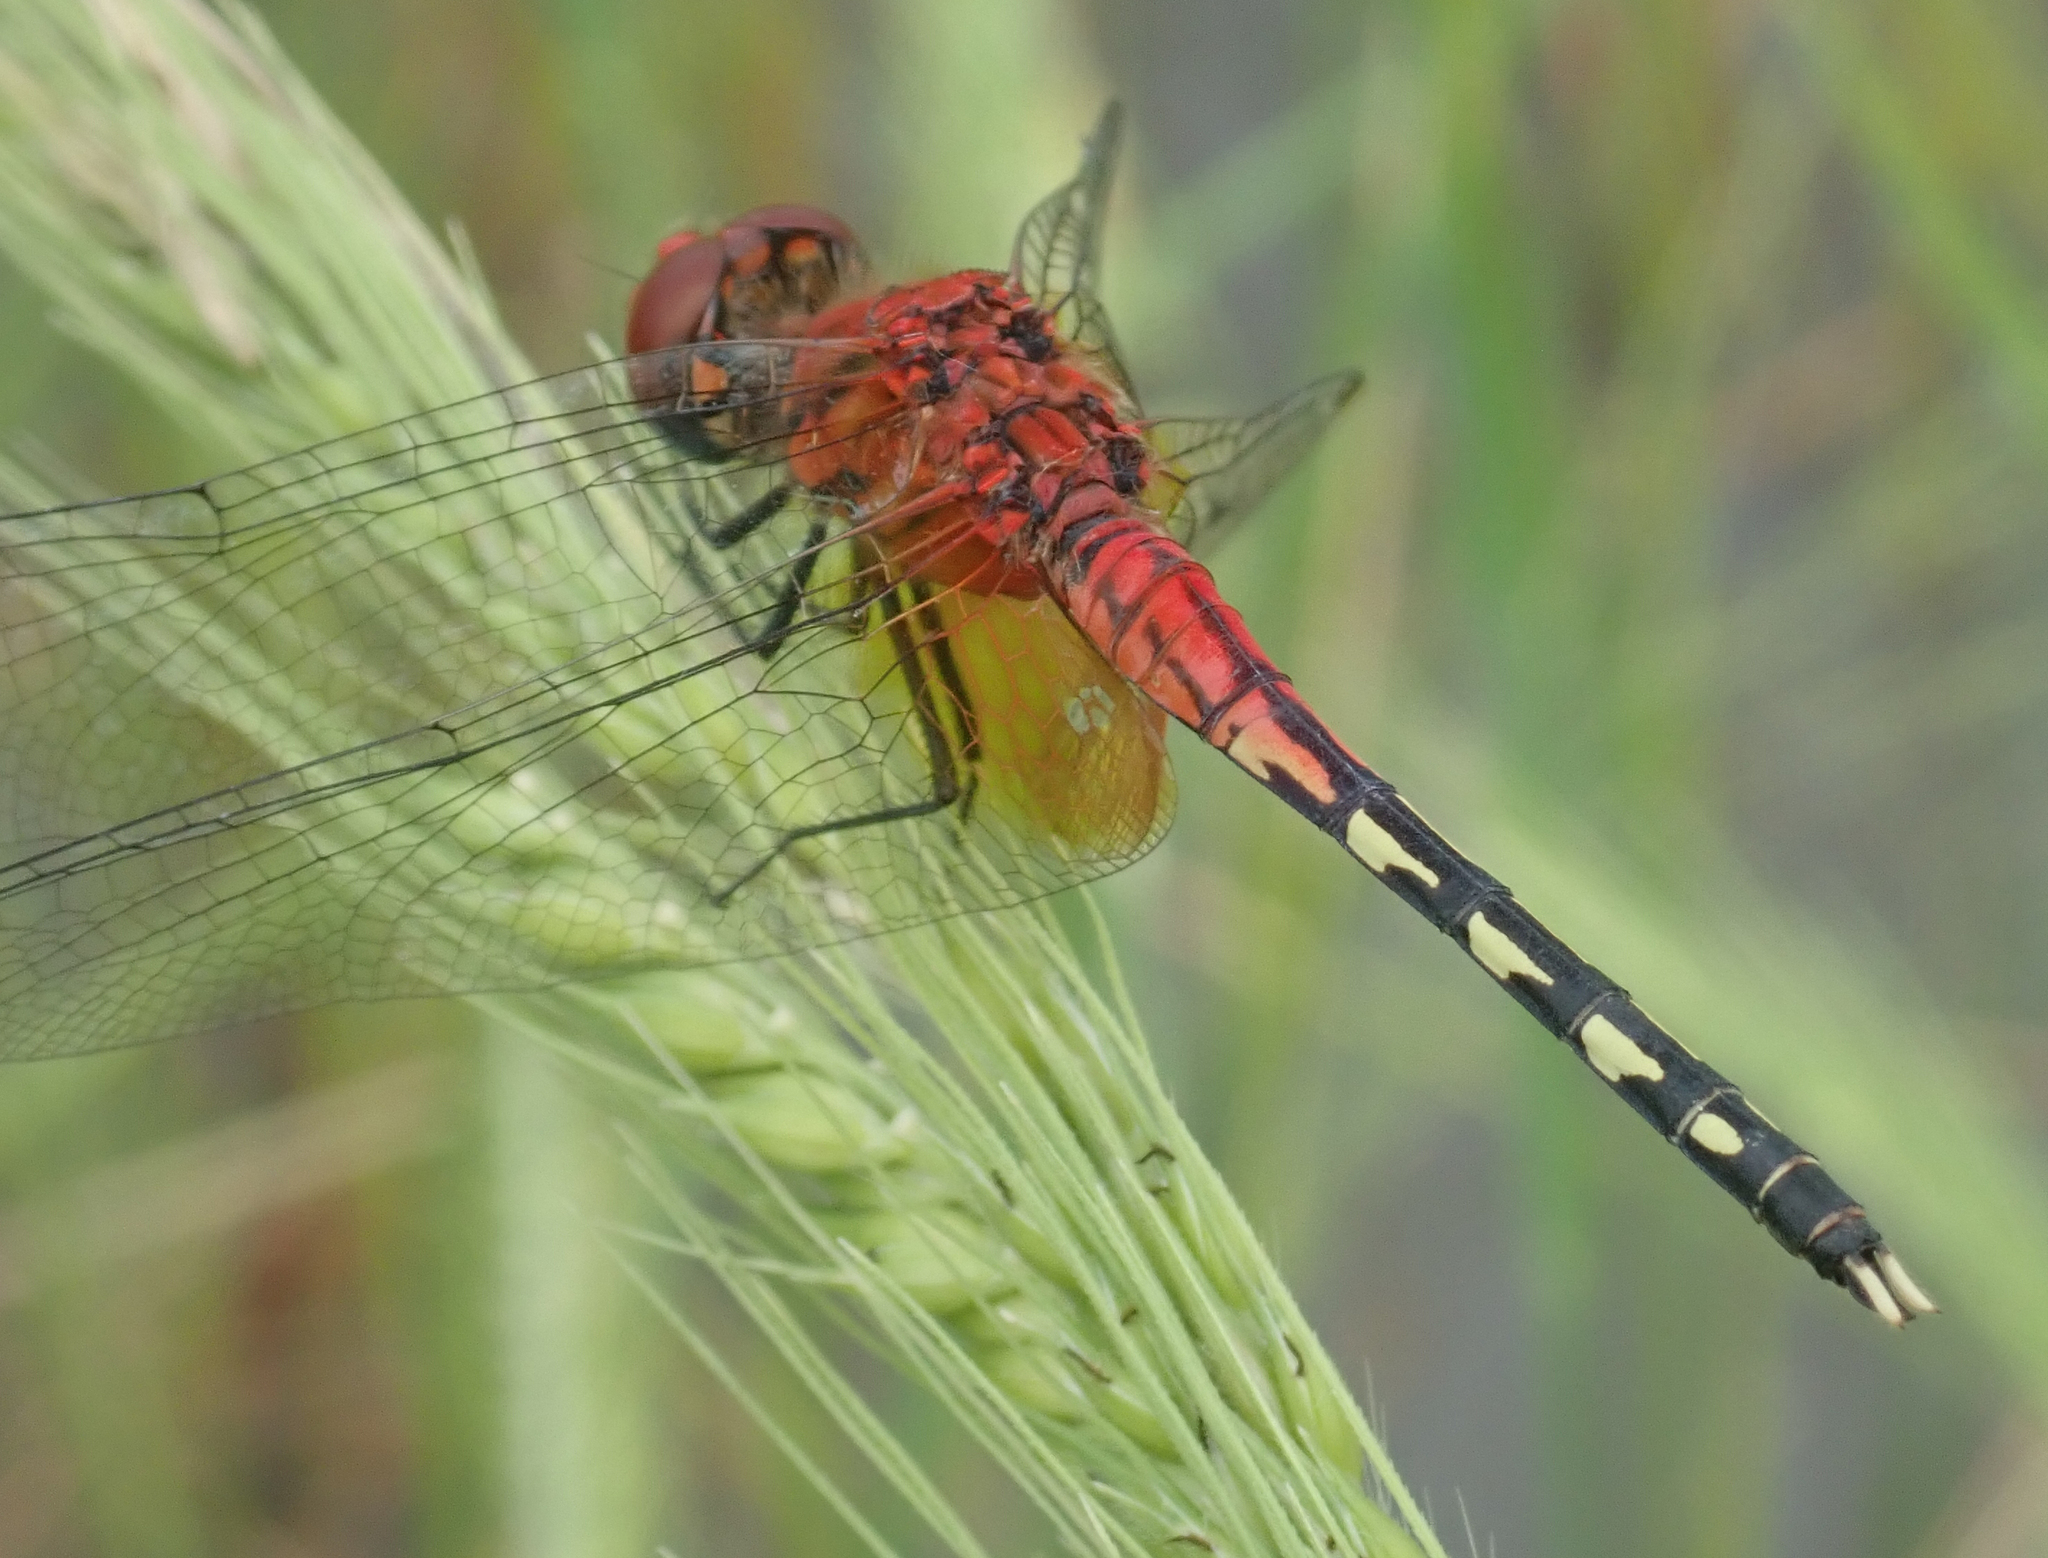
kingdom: Animalia
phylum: Arthropoda
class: Insecta
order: Odonata
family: Libellulidae
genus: Diplacodes
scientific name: Diplacodes luminans
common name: Barbet percher
